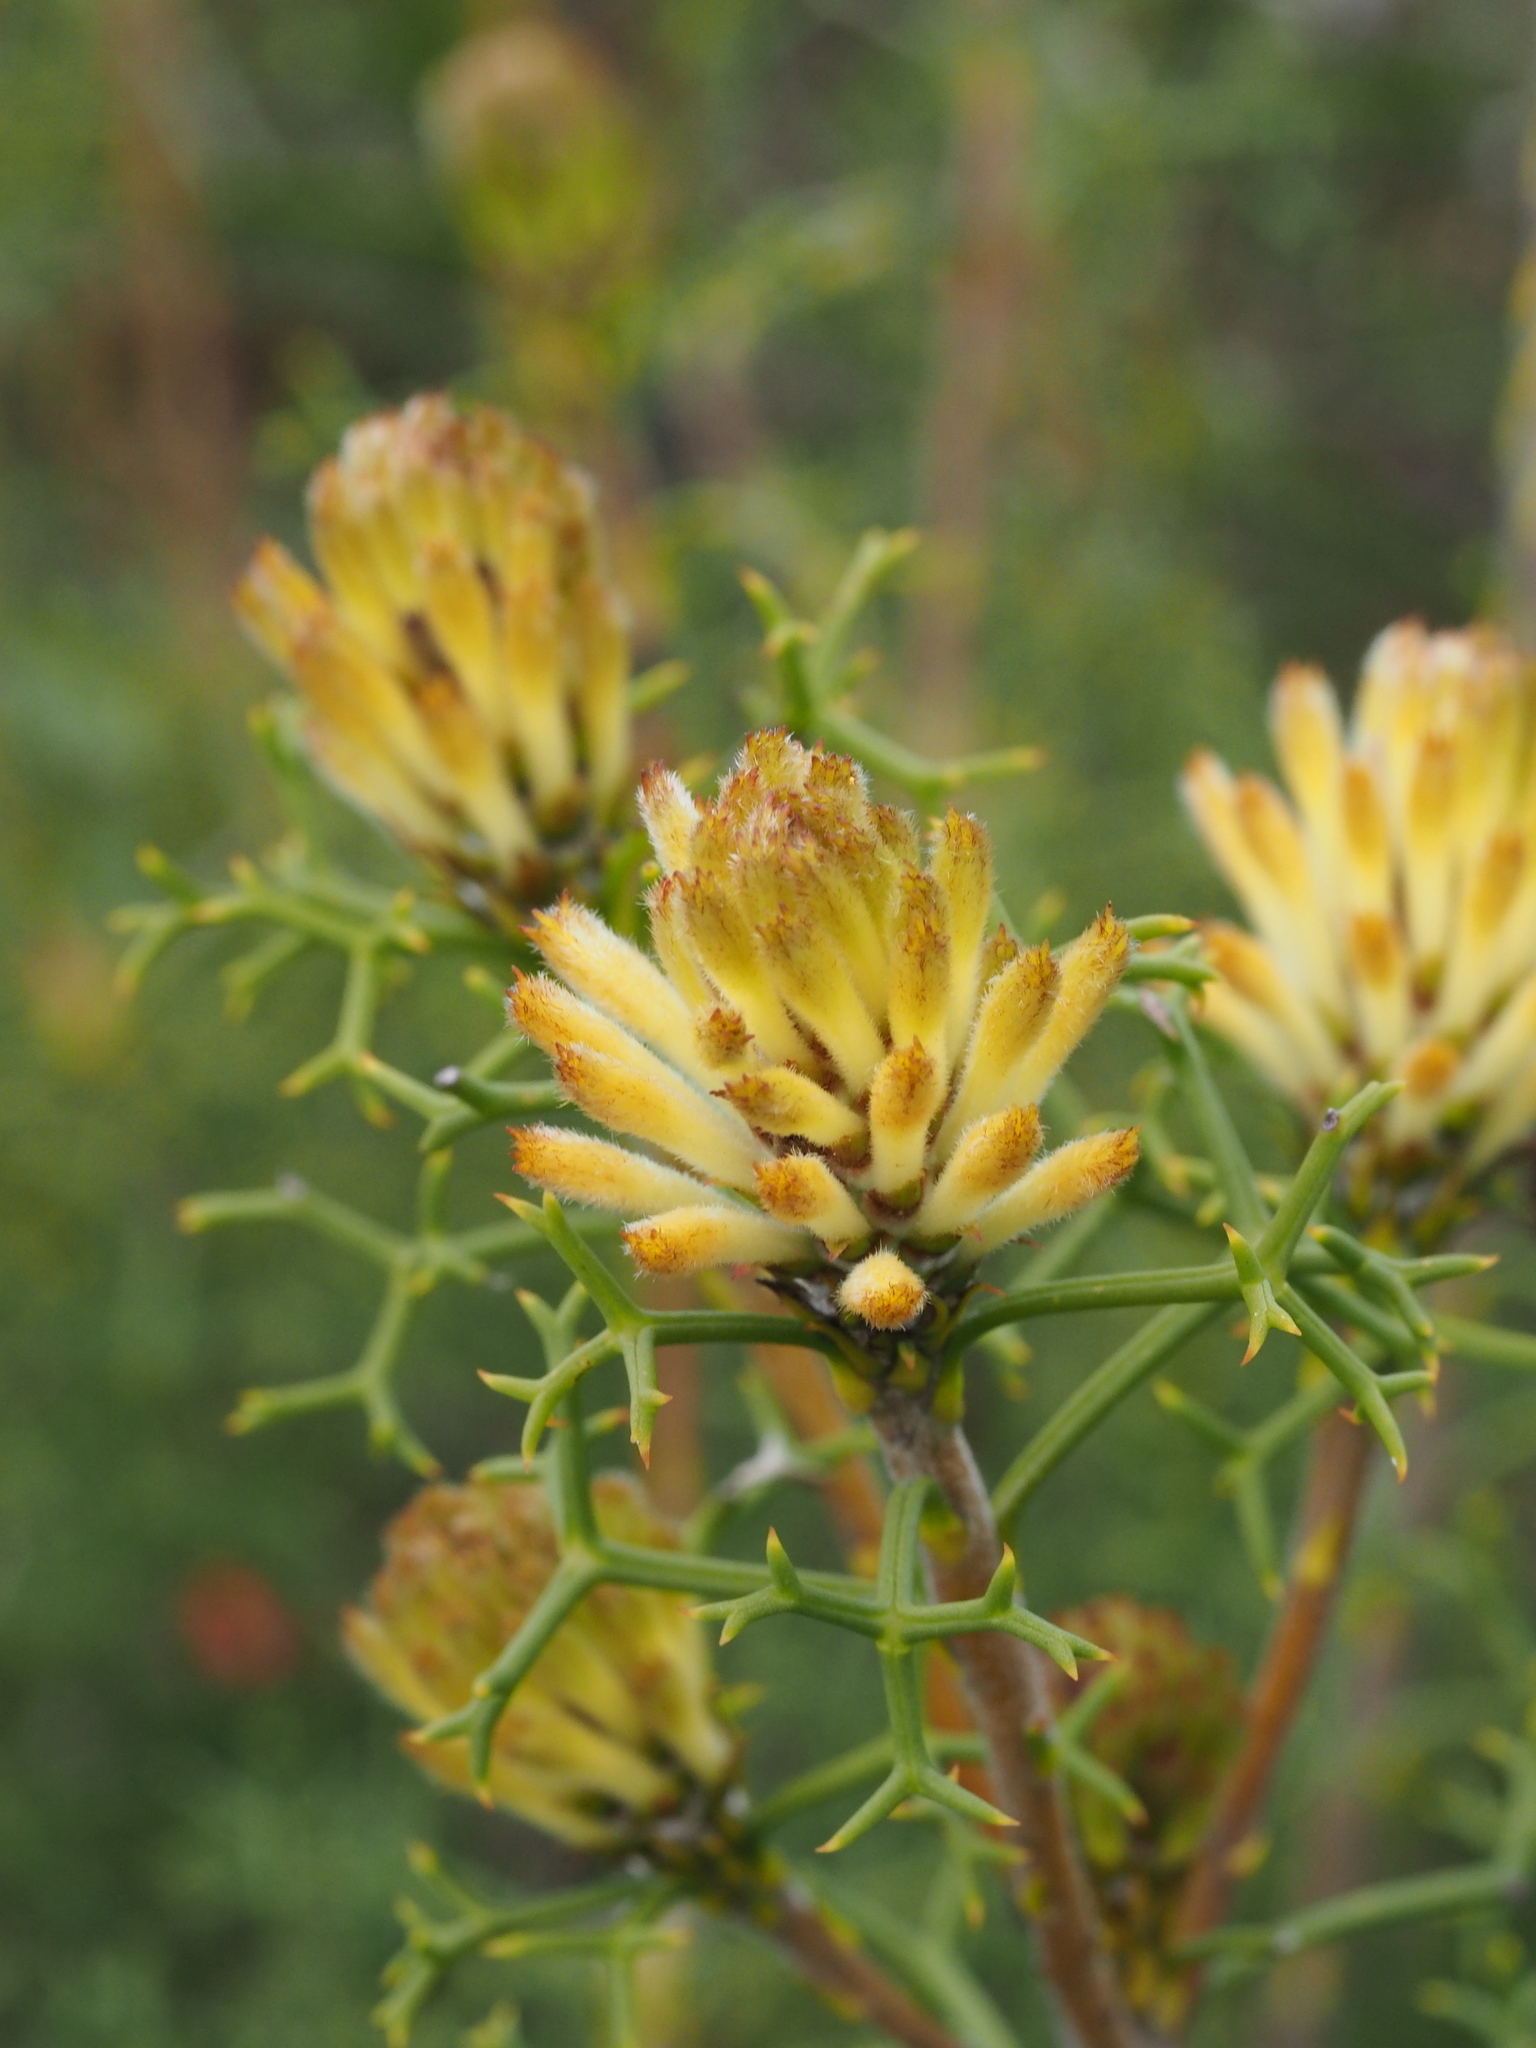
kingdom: Plantae
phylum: Tracheophyta
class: Magnoliopsida
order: Proteales
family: Proteaceae
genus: Petrophile
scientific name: Petrophile rigida
